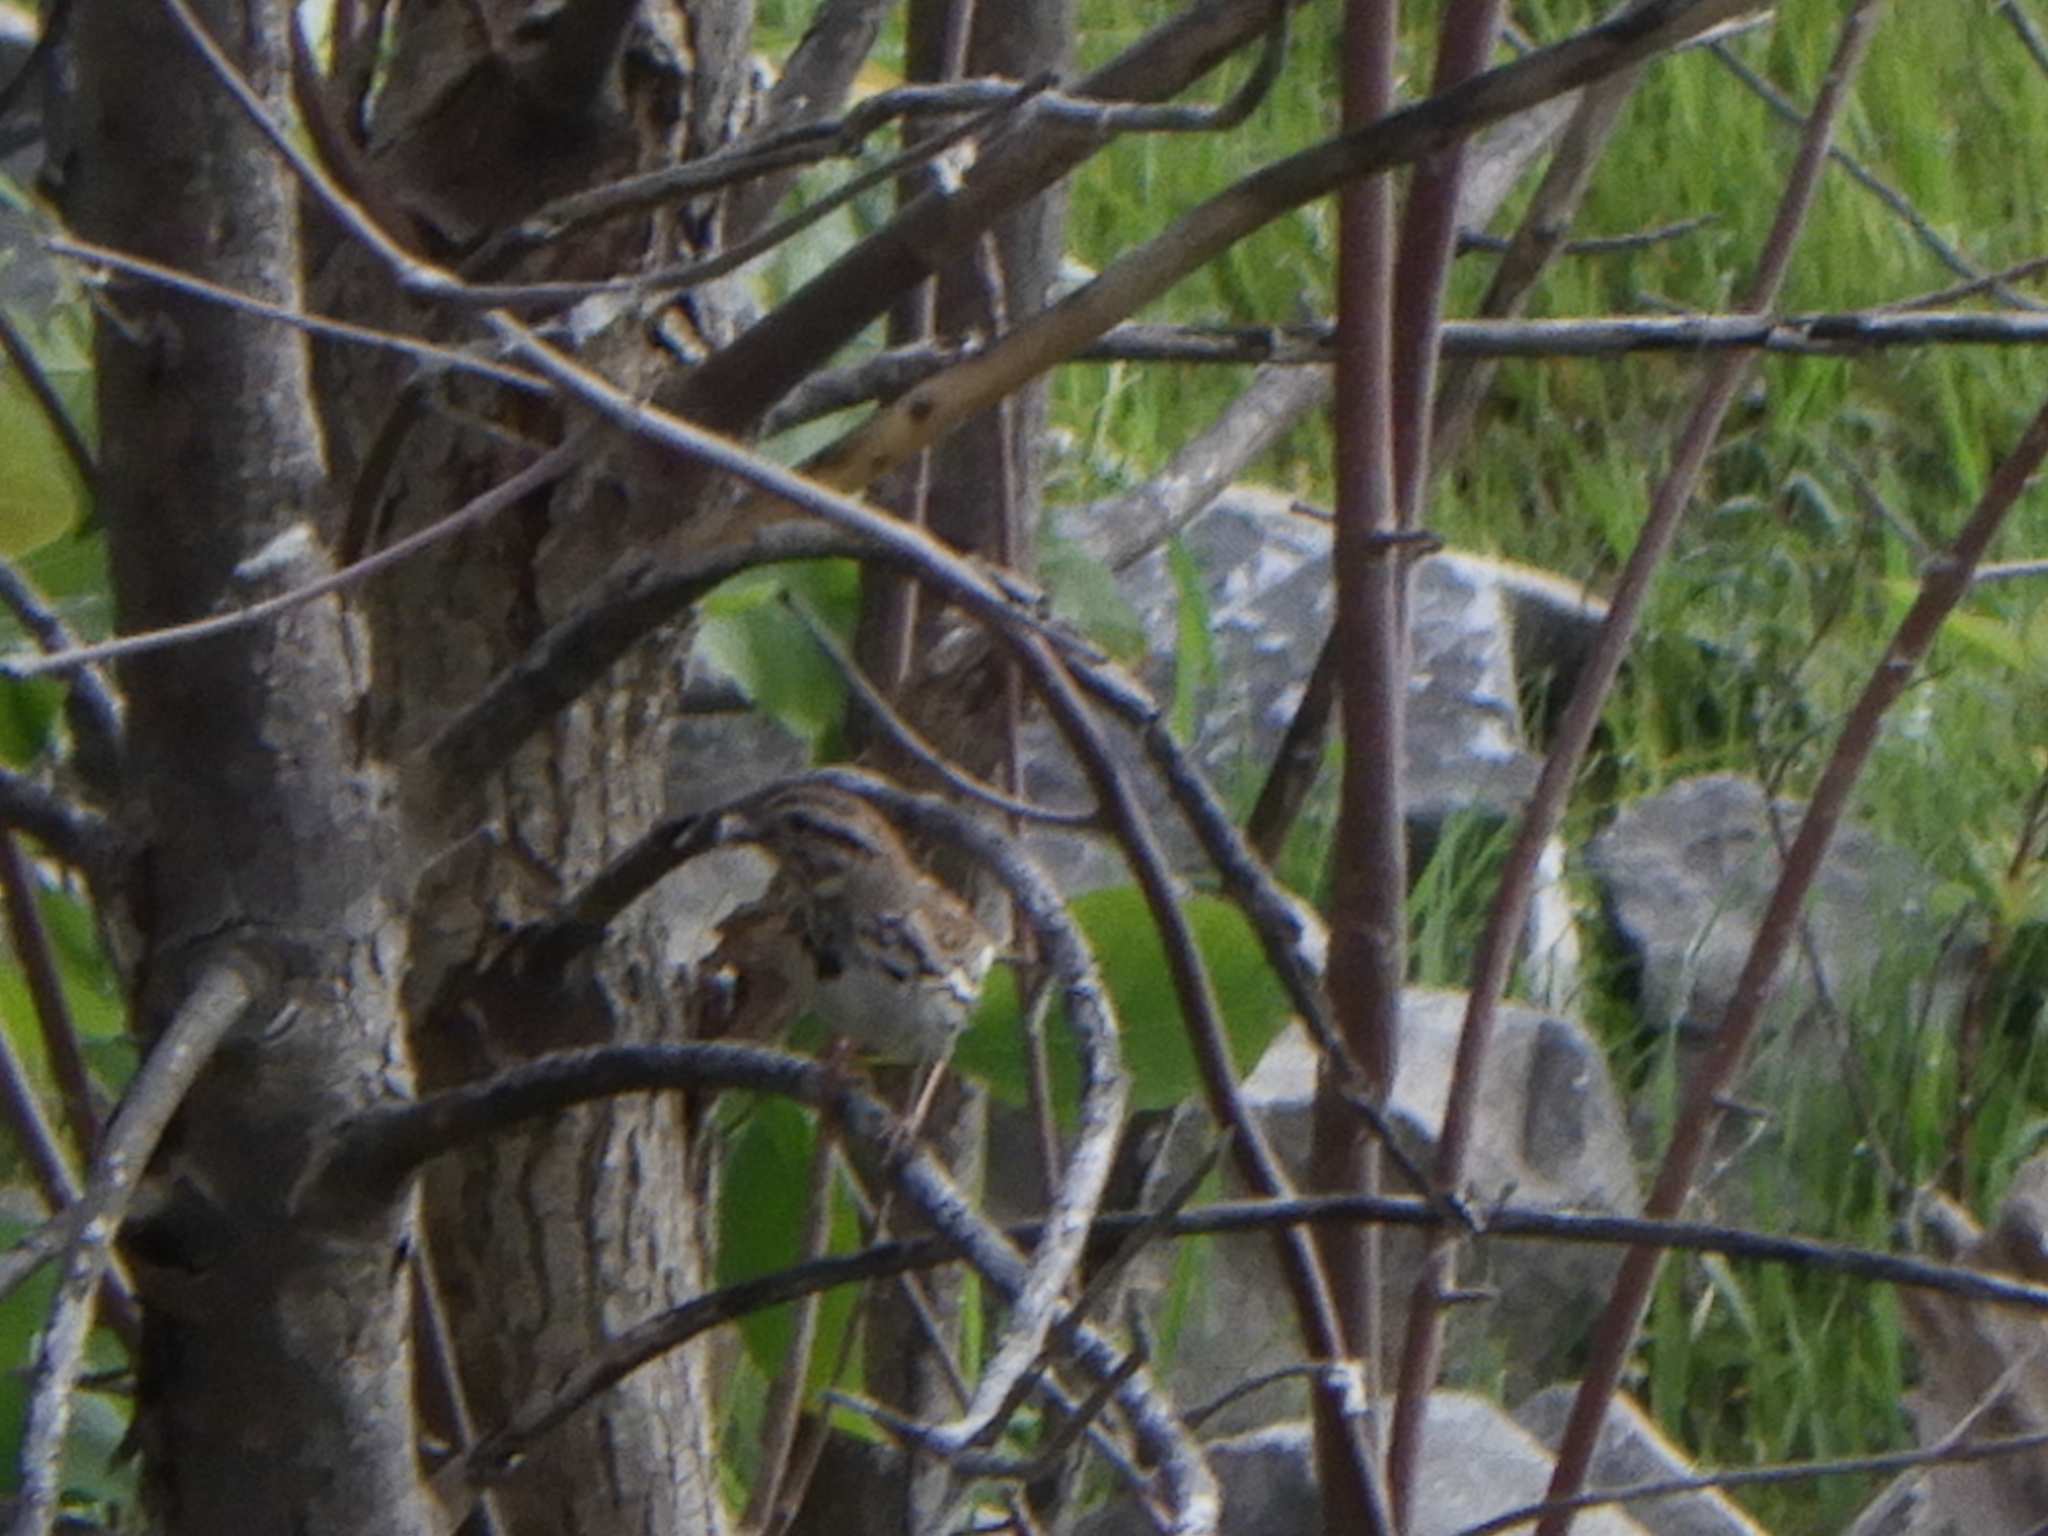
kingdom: Animalia
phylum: Chordata
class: Aves
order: Passeriformes
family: Passerellidae
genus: Melospiza
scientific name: Melospiza melodia
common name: Song sparrow
